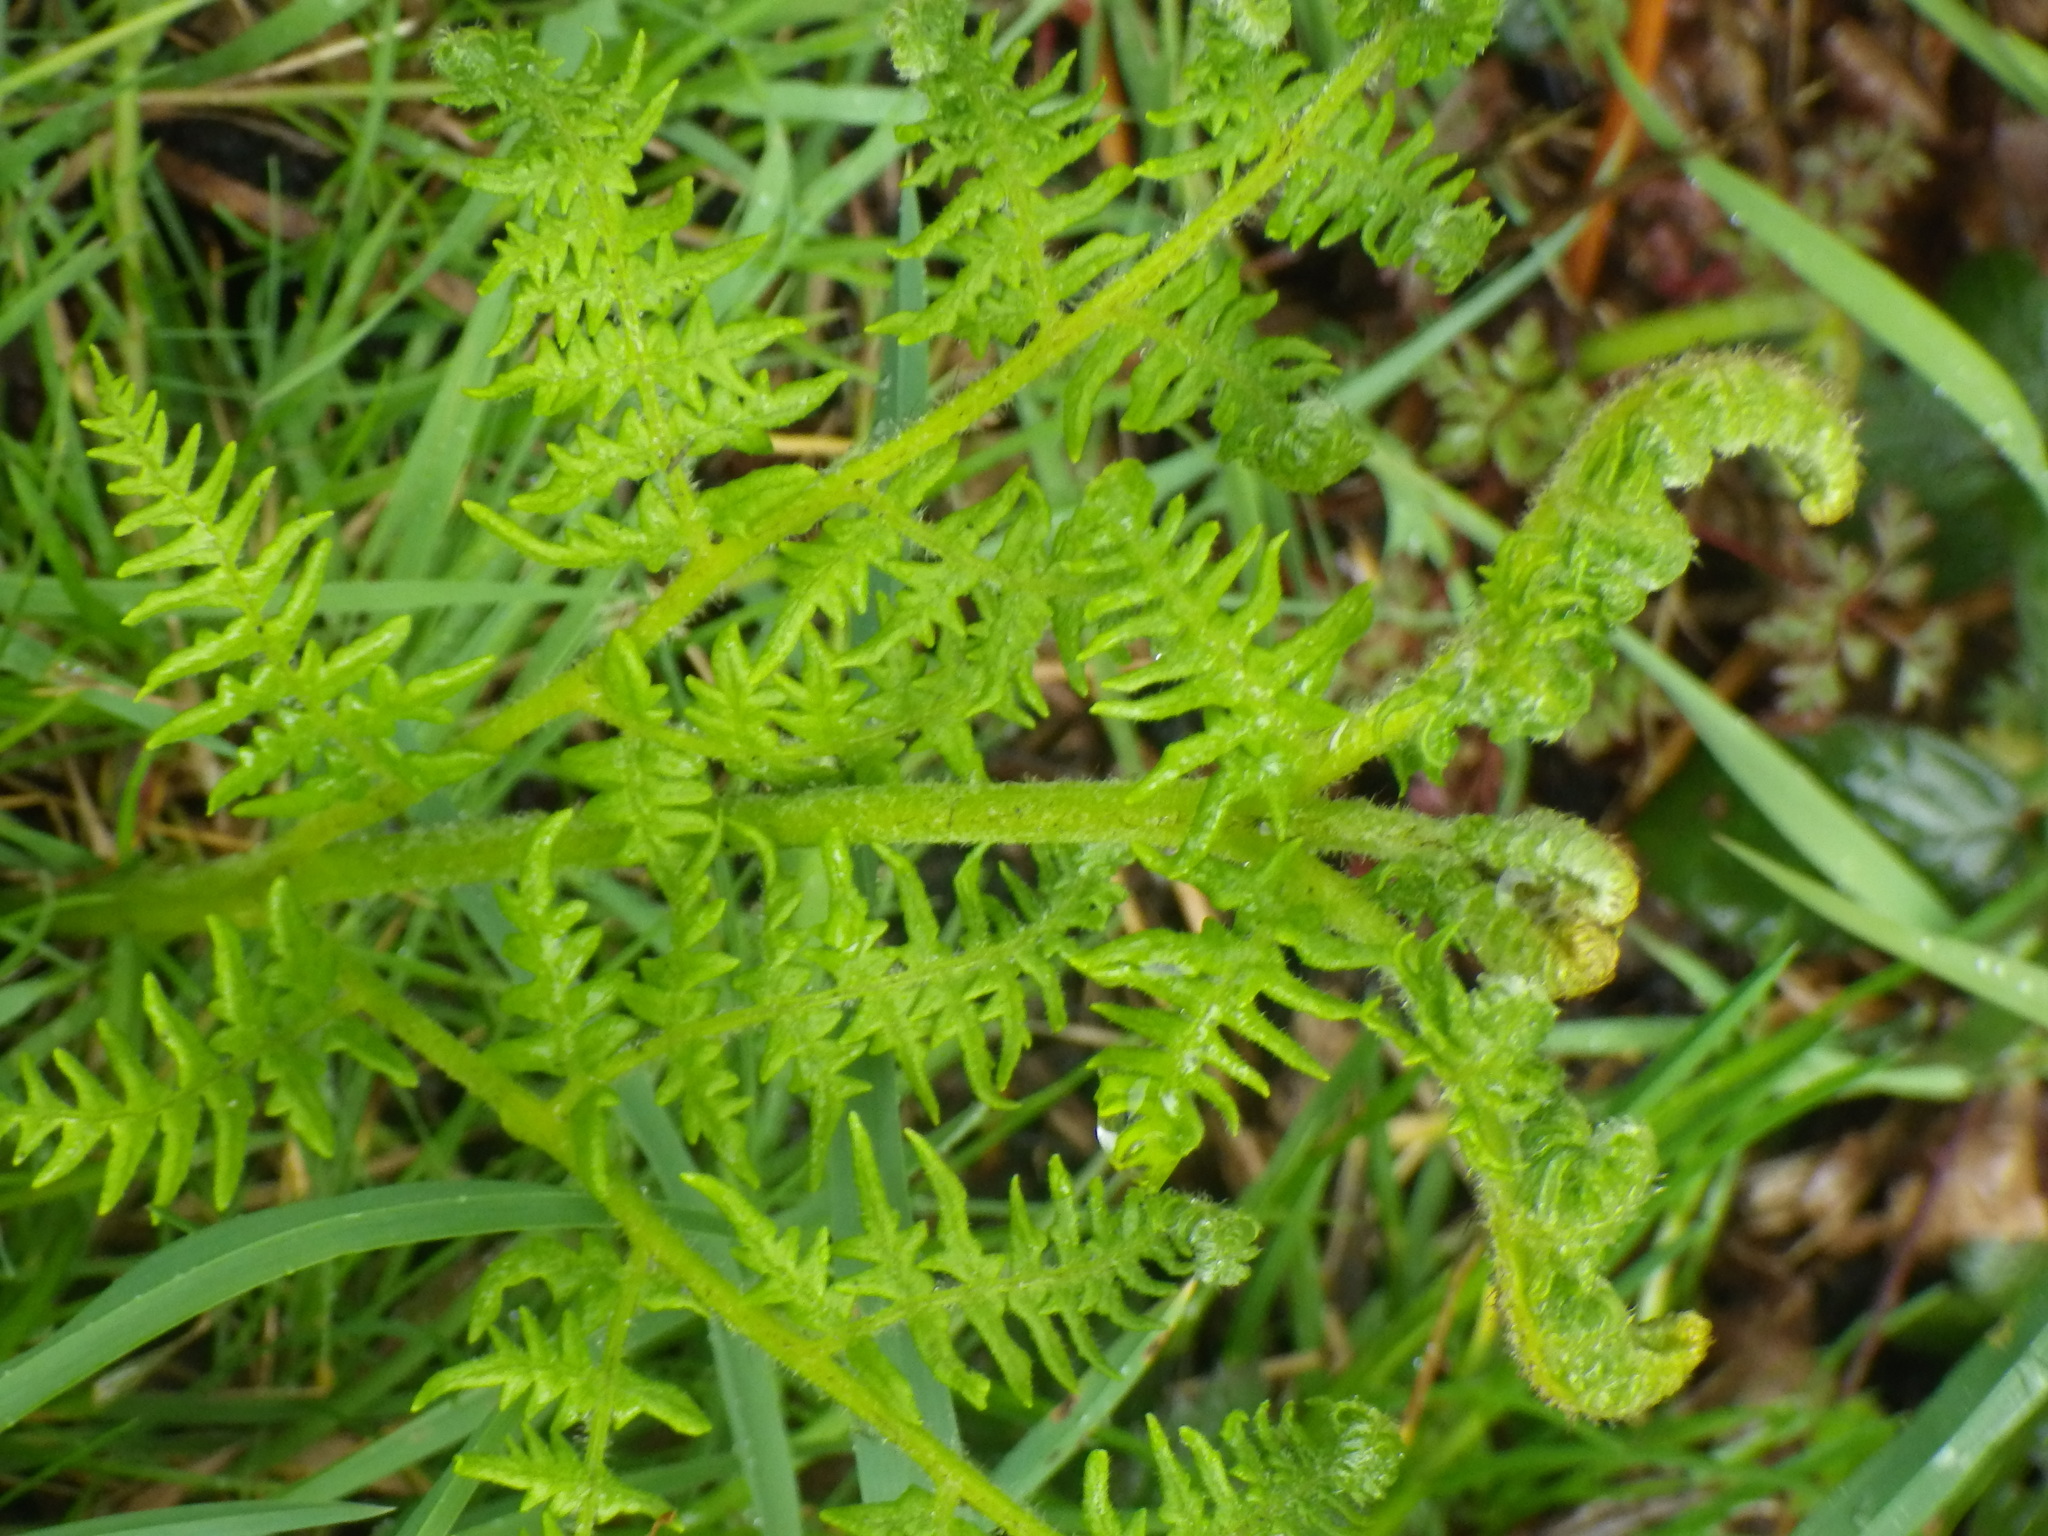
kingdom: Plantae
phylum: Tracheophyta
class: Polypodiopsida
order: Polypodiales
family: Dennstaedtiaceae
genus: Pteridium
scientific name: Pteridium aquilinum
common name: Bracken
